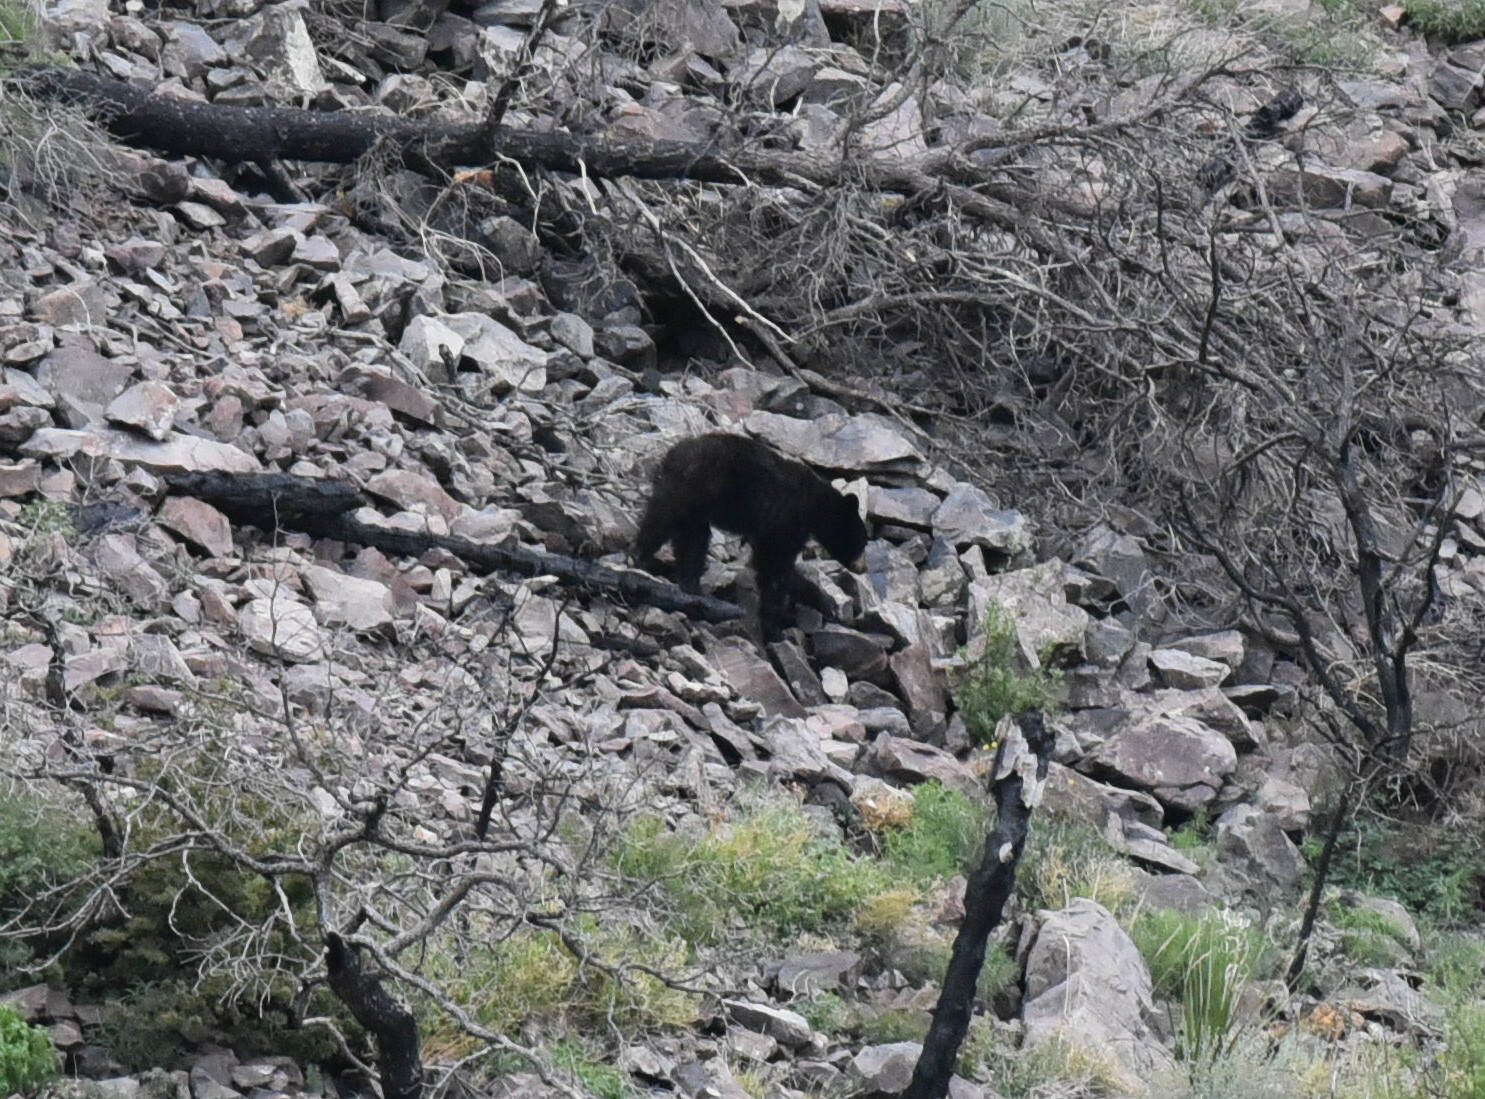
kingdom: Animalia
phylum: Chordata
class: Mammalia
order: Carnivora
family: Ursidae
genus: Ursus
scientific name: Ursus americanus
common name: American black bear
